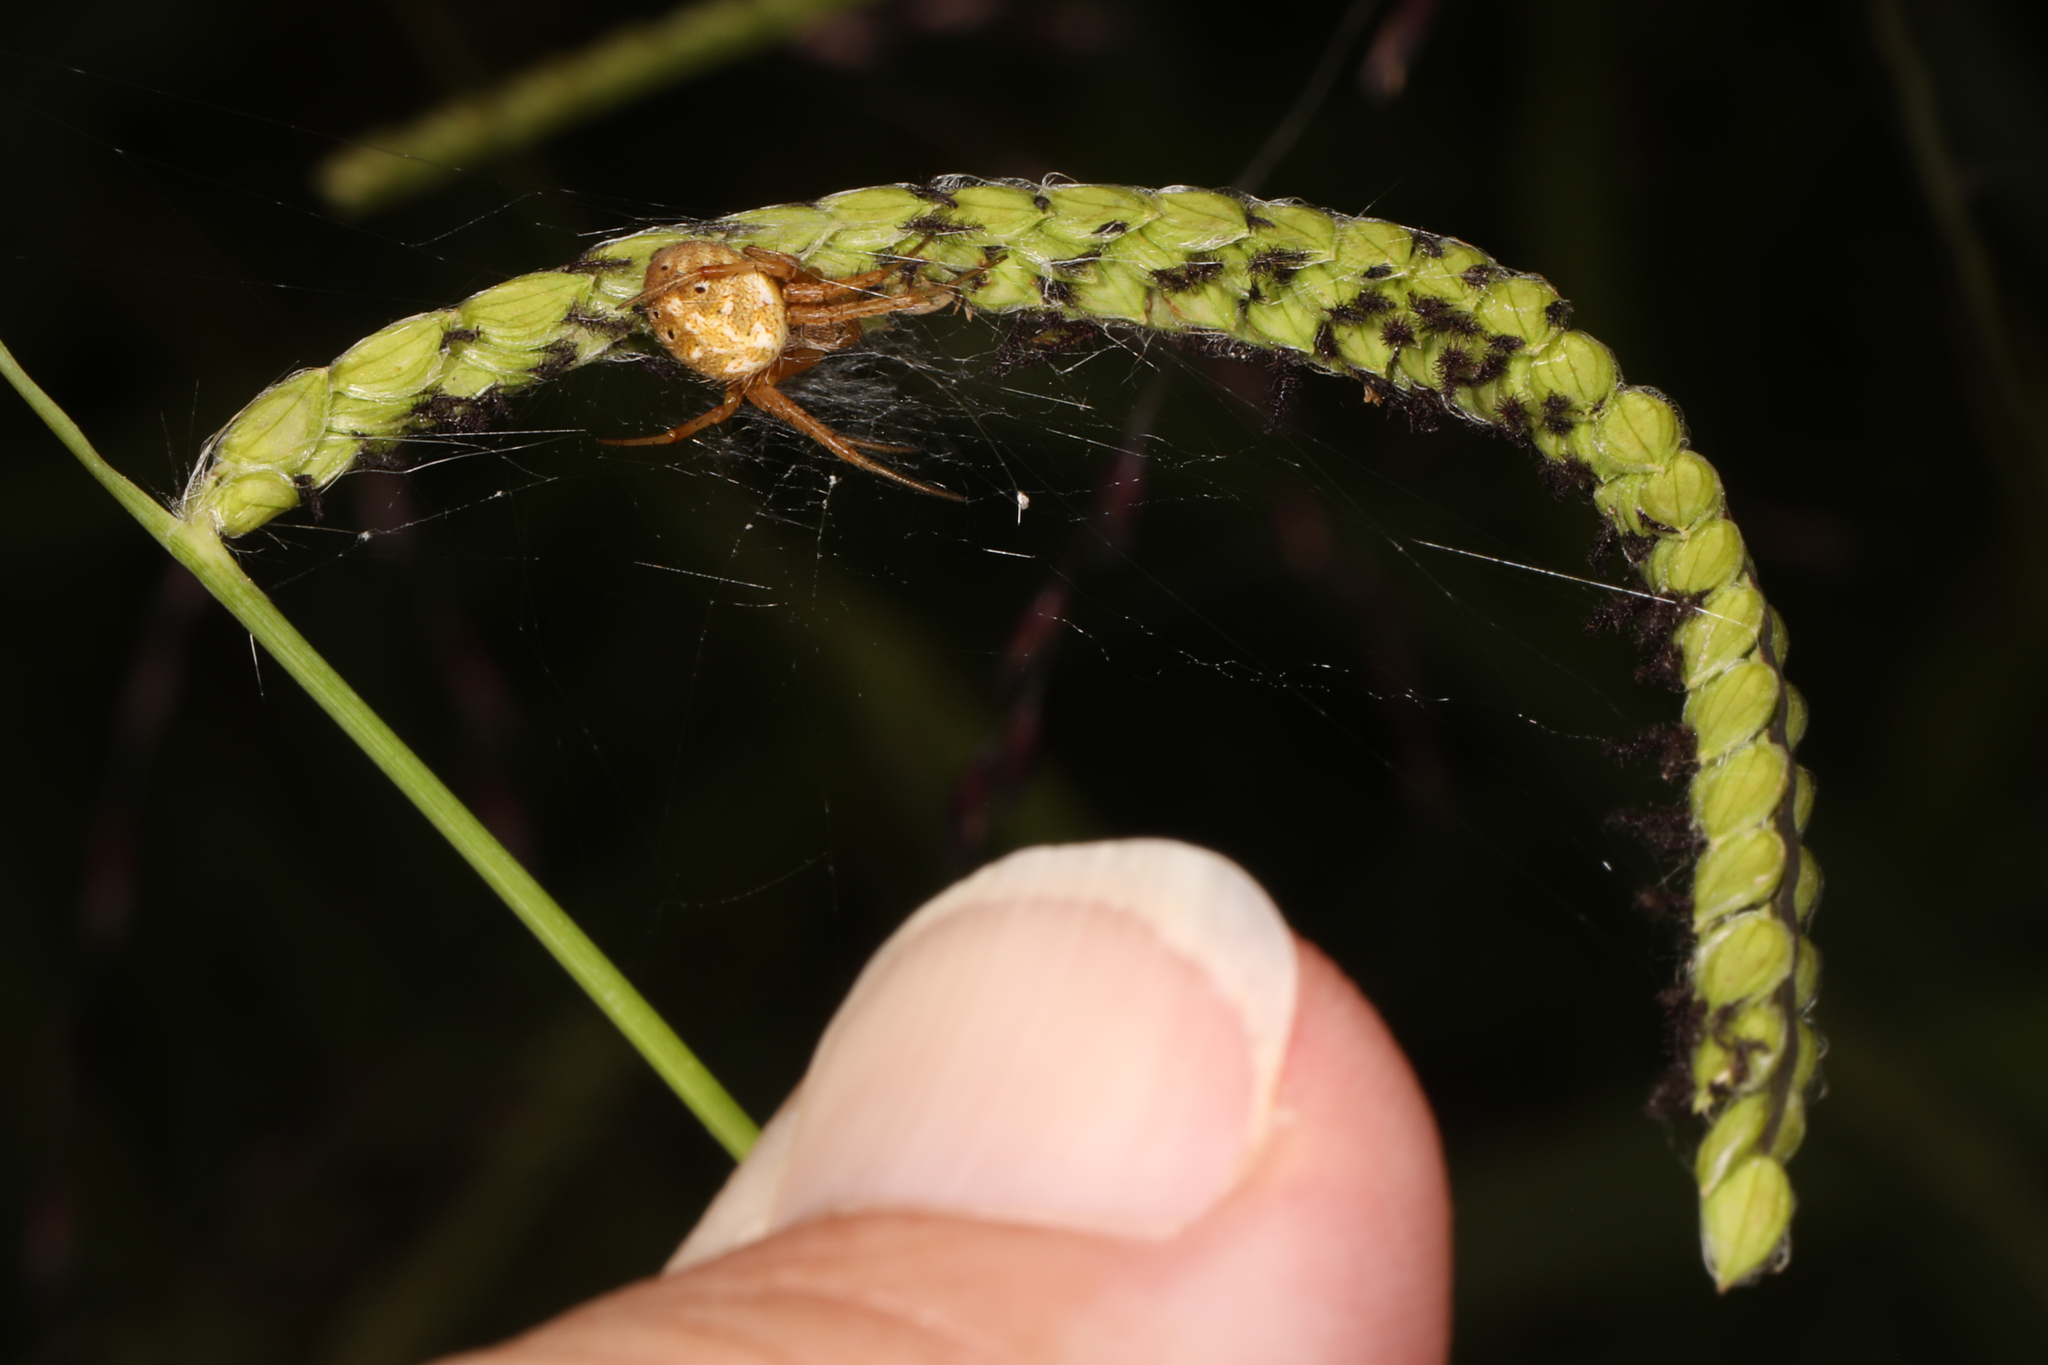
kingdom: Animalia
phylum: Arthropoda
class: Arachnida
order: Araneae
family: Araneidae
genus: Neoscona
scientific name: Neoscona arabesca
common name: Orb weavers
